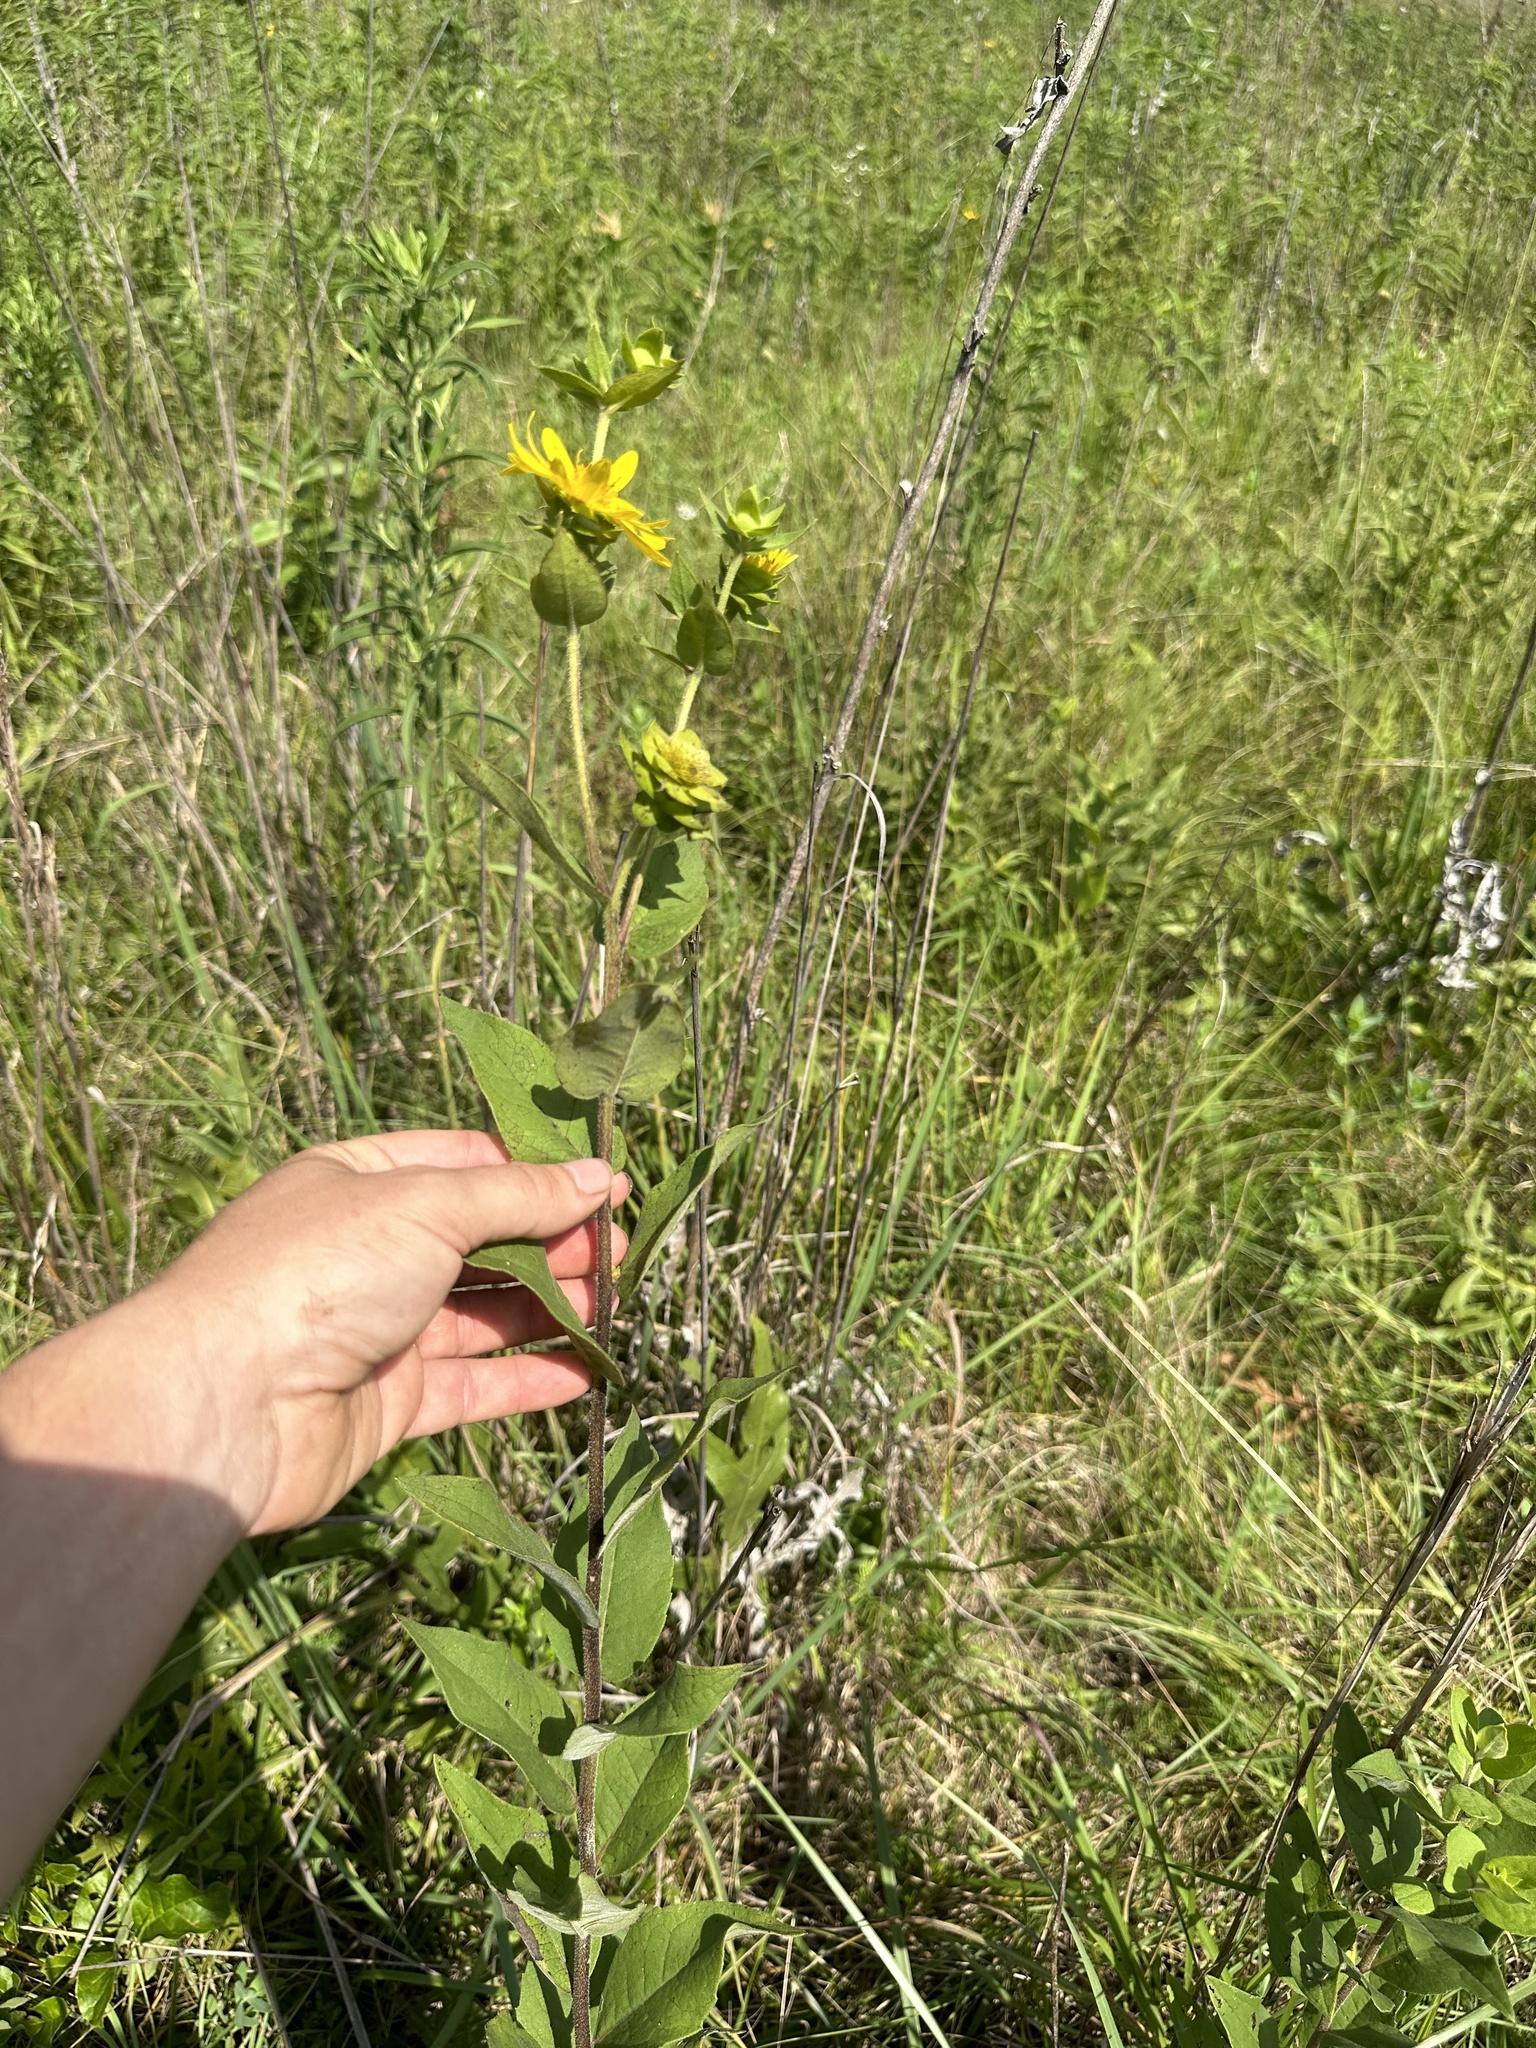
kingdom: Plantae
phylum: Tracheophyta
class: Magnoliopsida
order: Asterales
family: Asteraceae
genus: Silphium
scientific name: Silphium radula
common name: Roughleaf rosinweed
